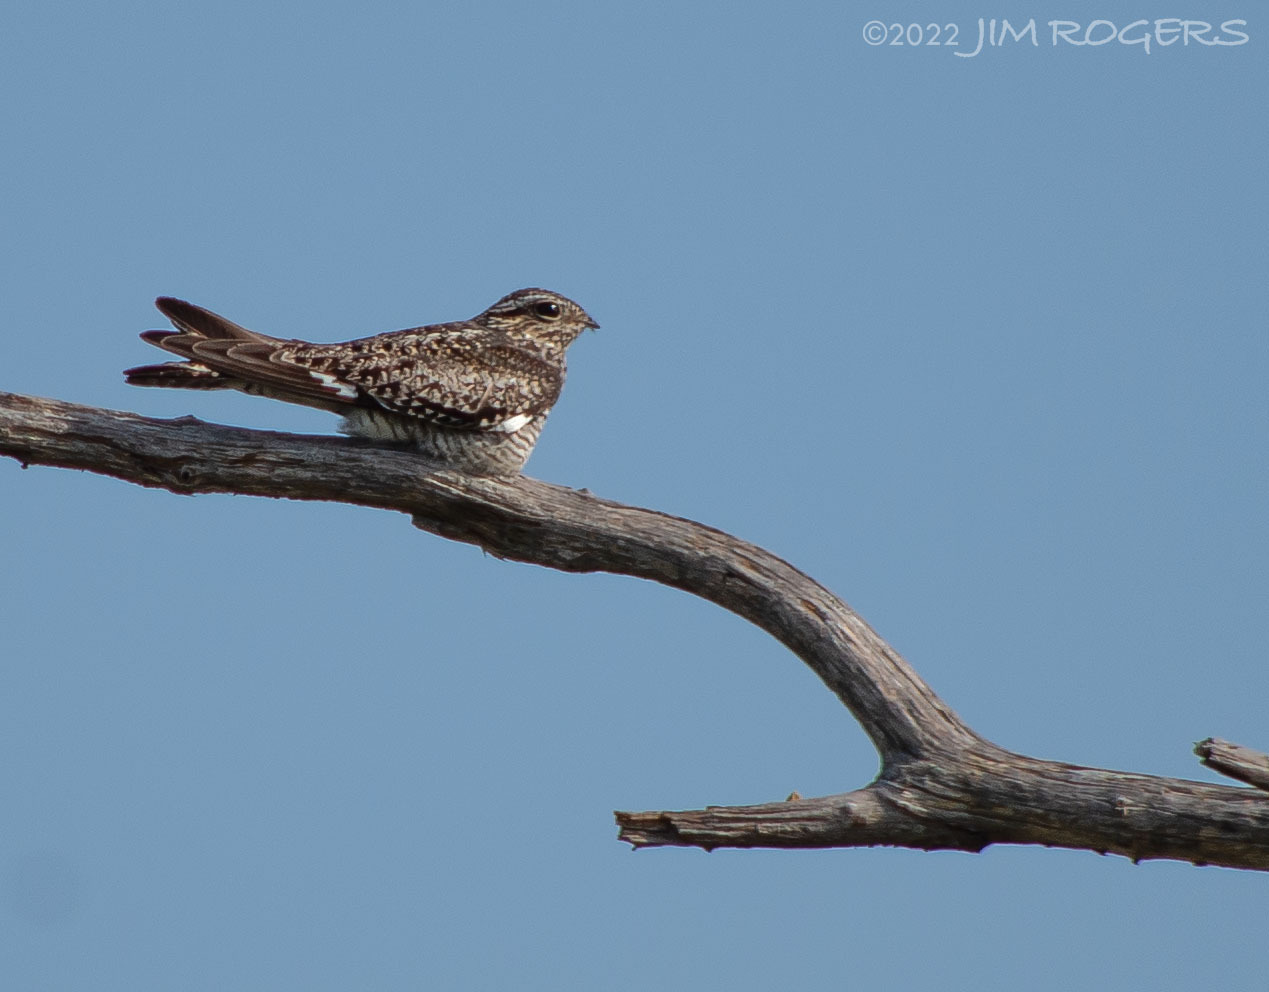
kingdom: Animalia
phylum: Chordata
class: Aves
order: Caprimulgiformes
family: Caprimulgidae
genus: Chordeiles
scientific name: Chordeiles minor
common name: Common nighthawk
